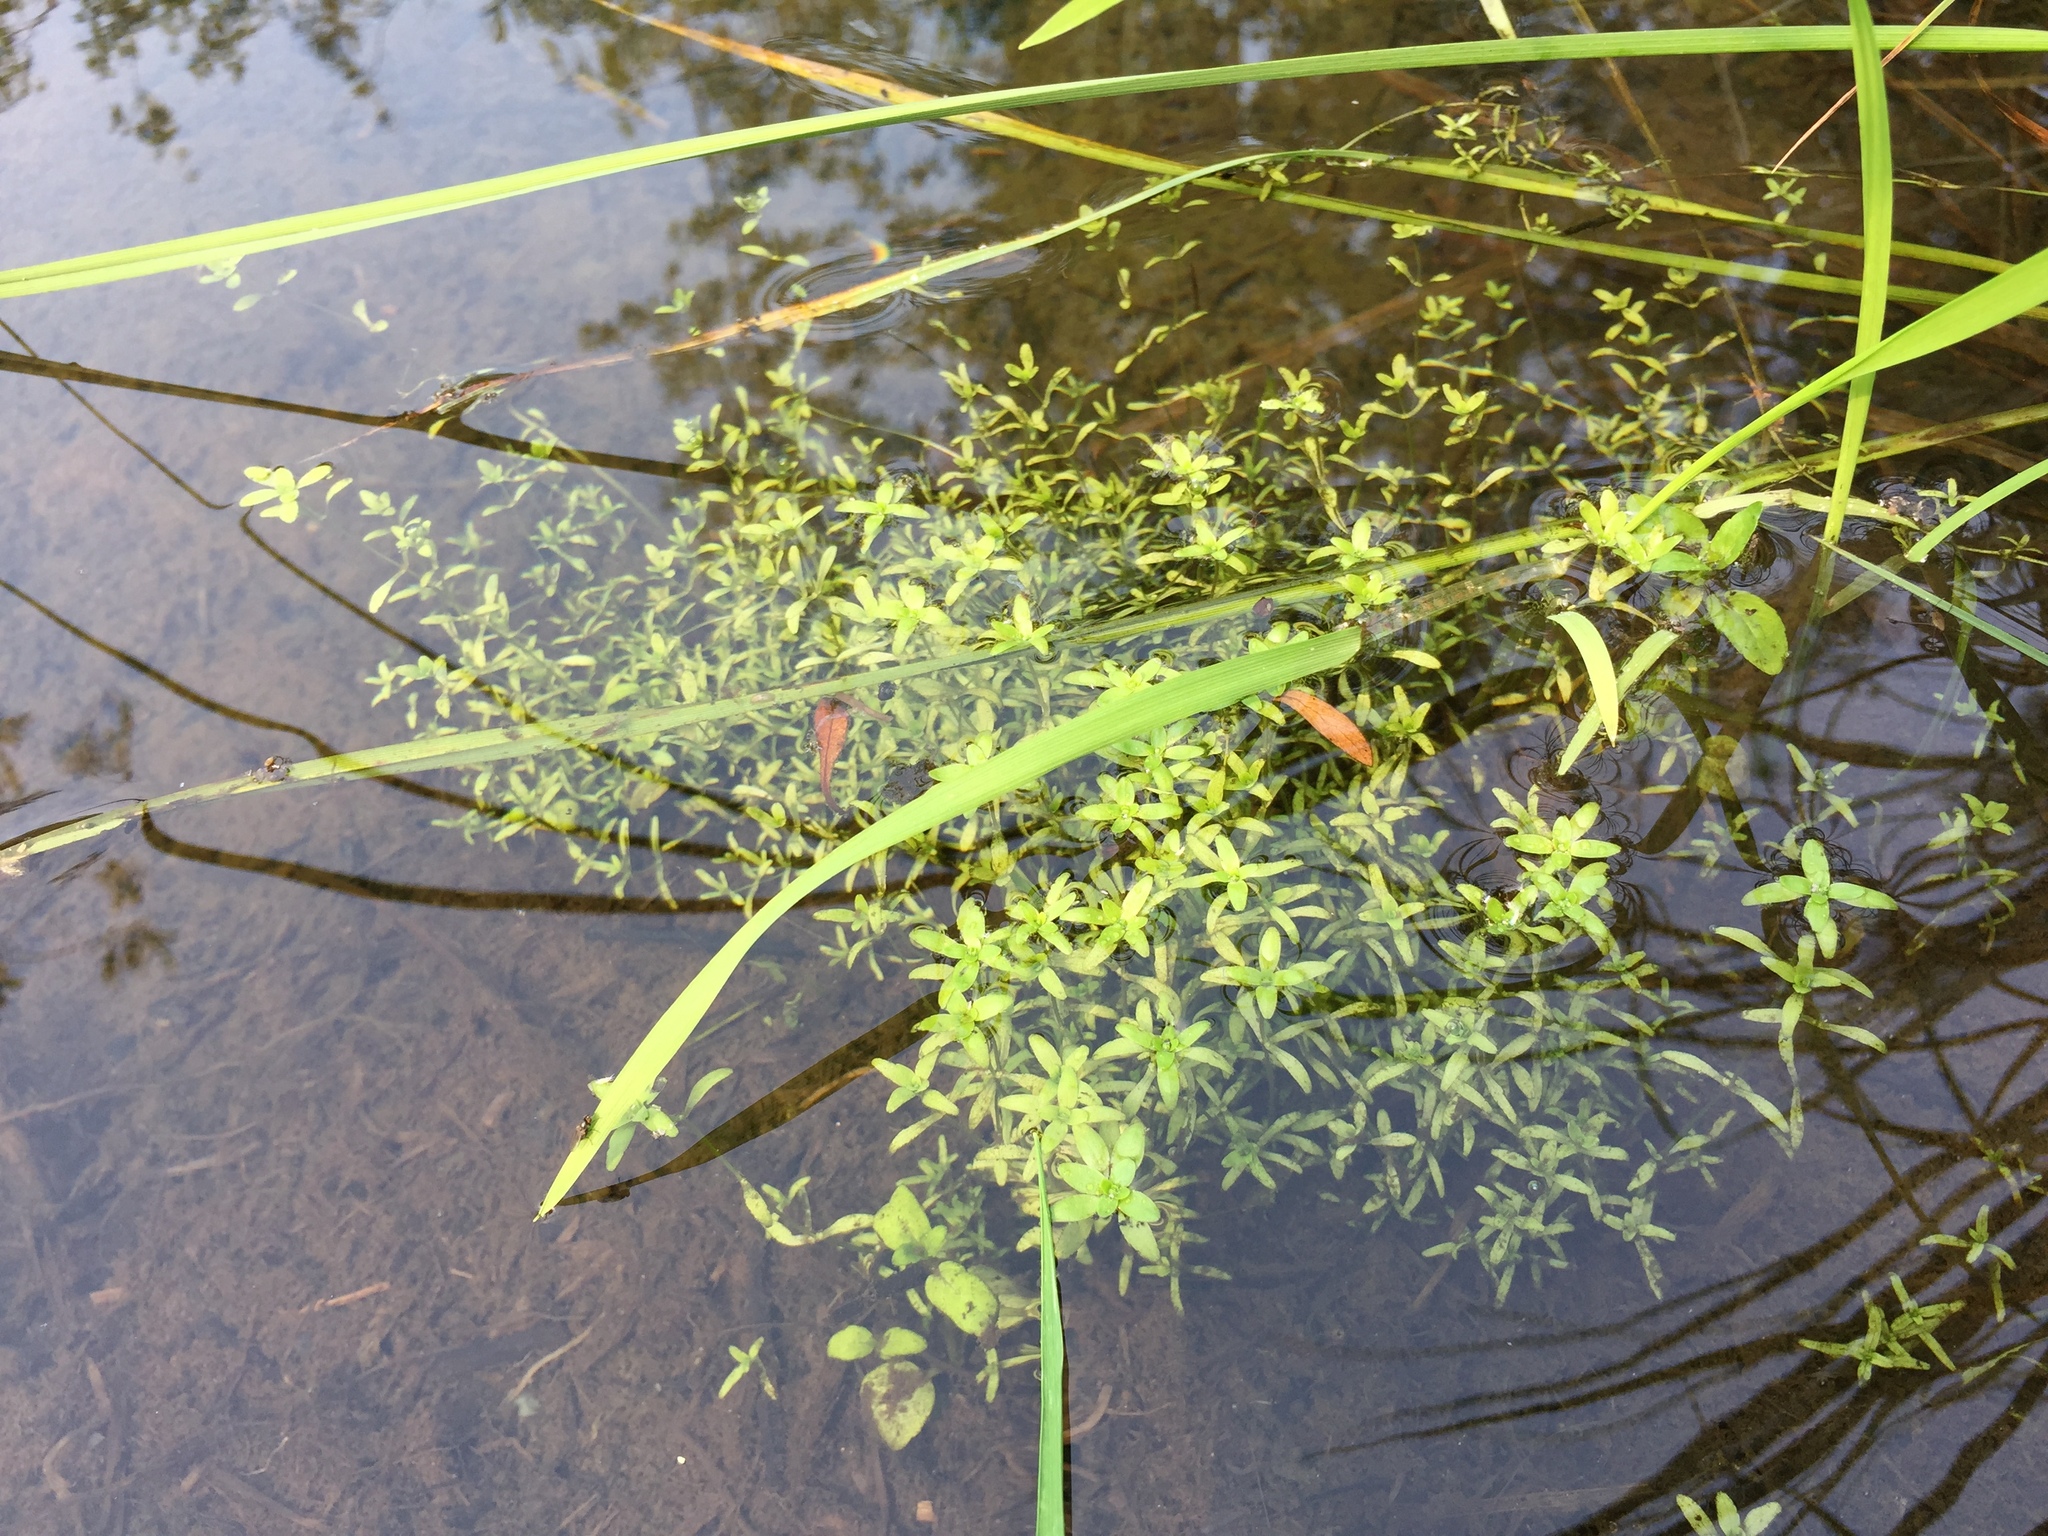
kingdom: Plantae
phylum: Tracheophyta
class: Magnoliopsida
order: Lamiales
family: Plantaginaceae
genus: Callitriche
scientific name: Callitriche
